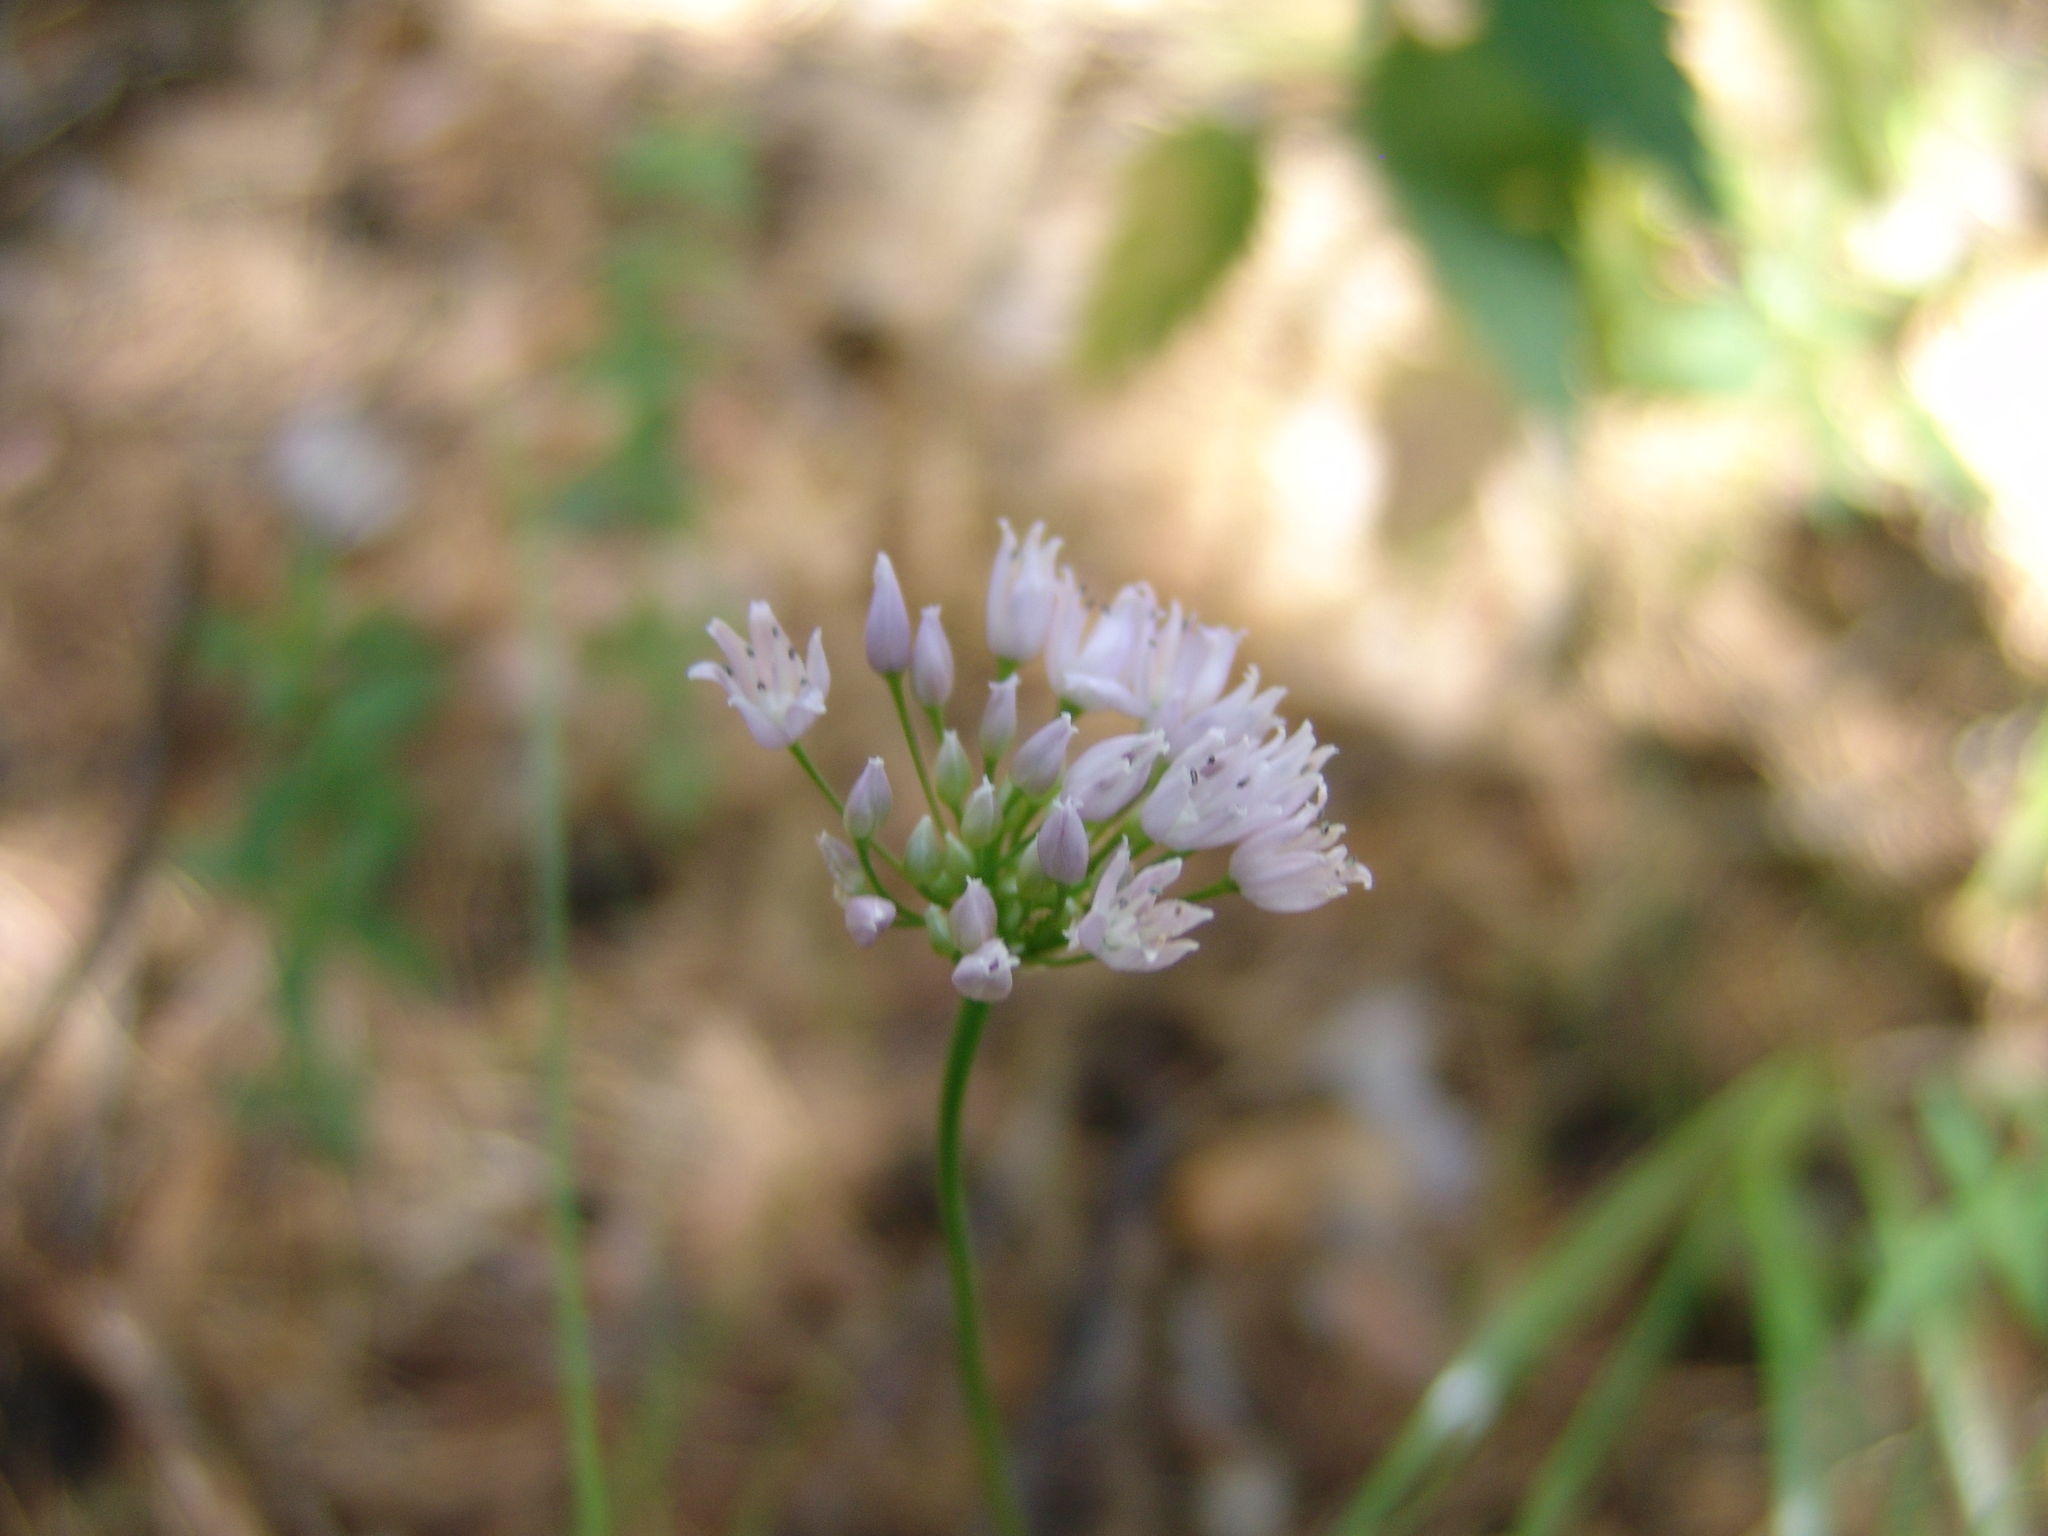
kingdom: Plantae
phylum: Tracheophyta
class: Liliopsida
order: Asparagales
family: Amaryllidaceae
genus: Allium
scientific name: Allium angulosum
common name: Mouse garlic
